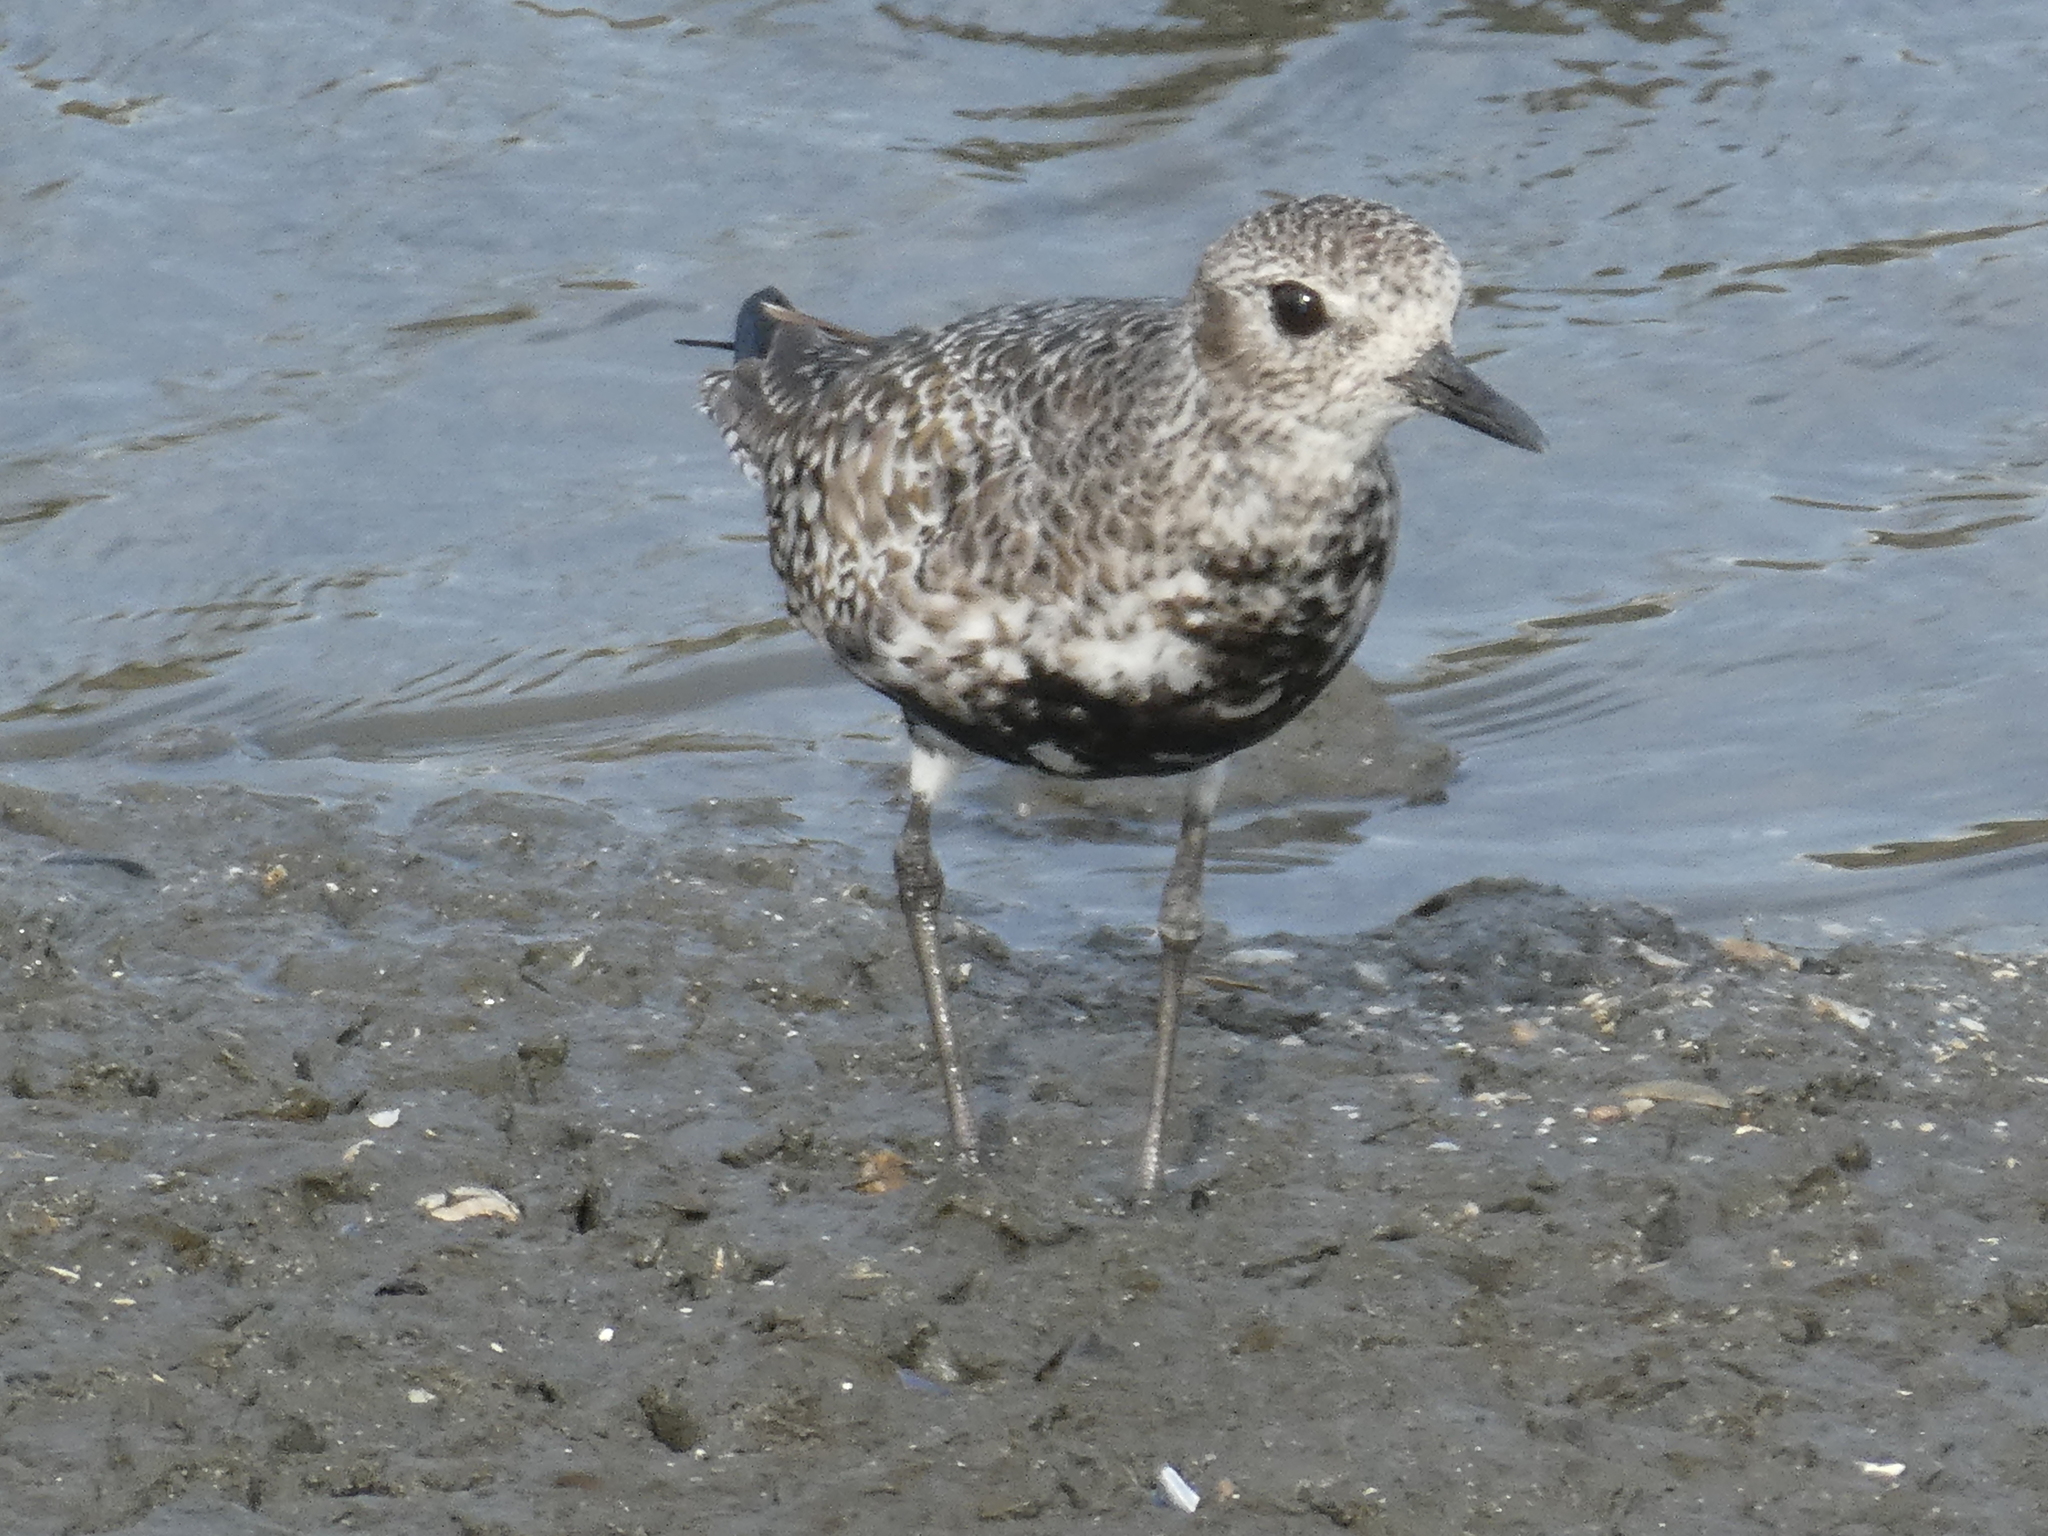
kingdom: Animalia
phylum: Chordata
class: Aves
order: Charadriiformes
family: Charadriidae
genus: Pluvialis
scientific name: Pluvialis squatarola
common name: Grey plover
